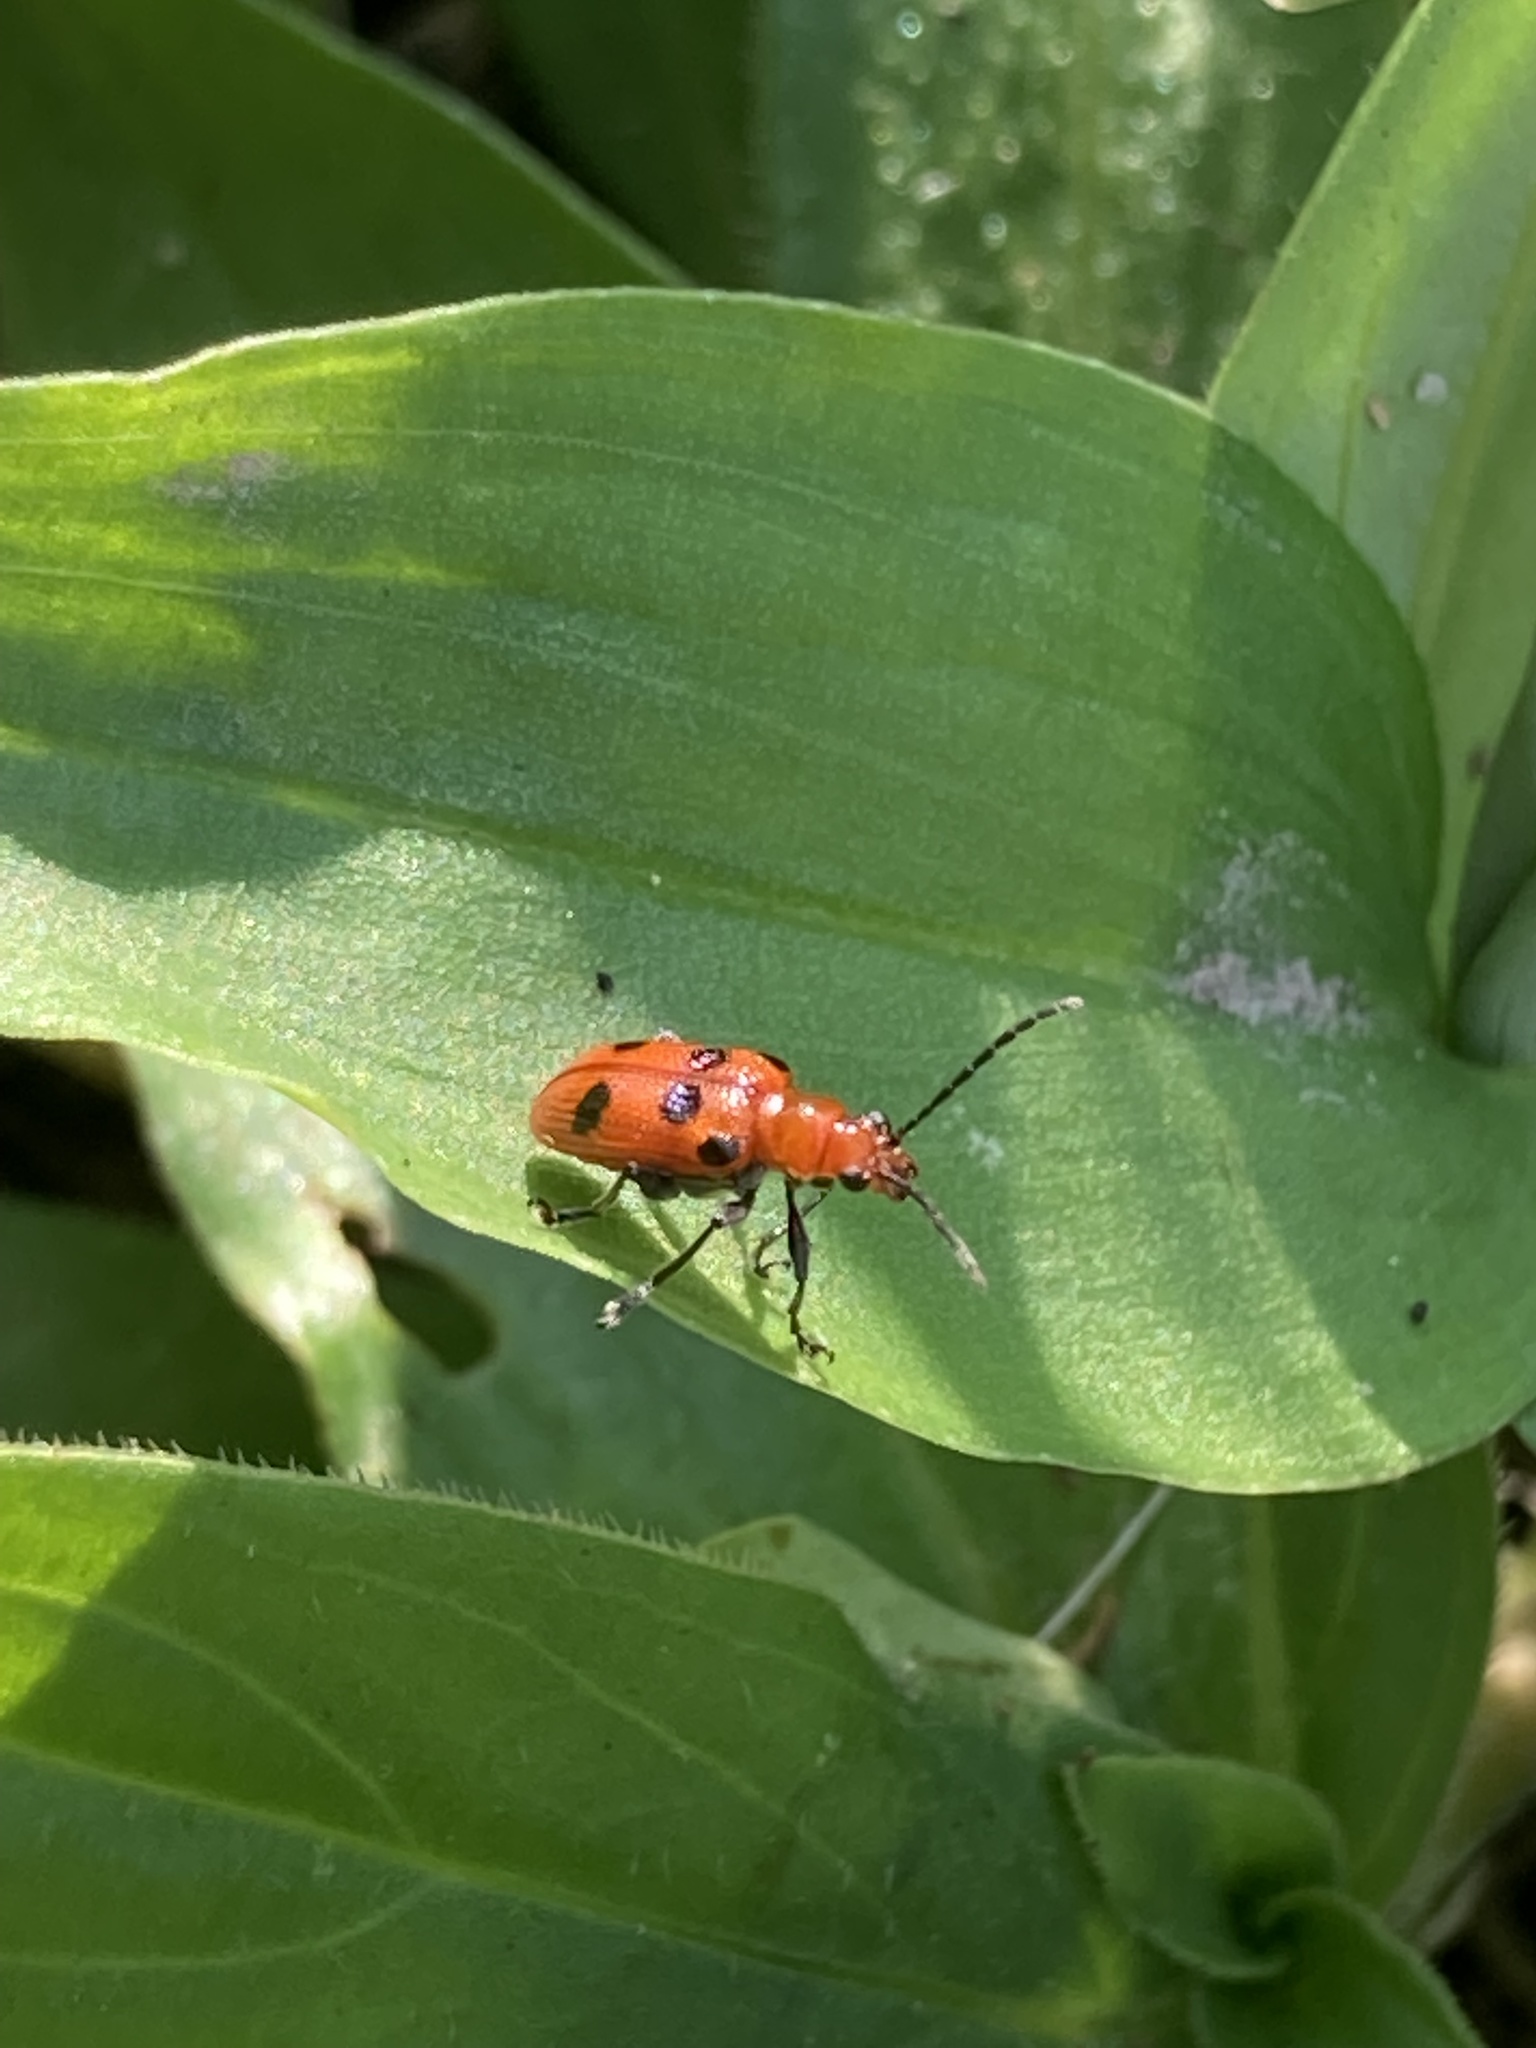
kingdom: Animalia
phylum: Arthropoda
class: Insecta
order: Coleoptera
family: Chrysomelidae
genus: Neolema
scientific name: Neolema sexpunctata
